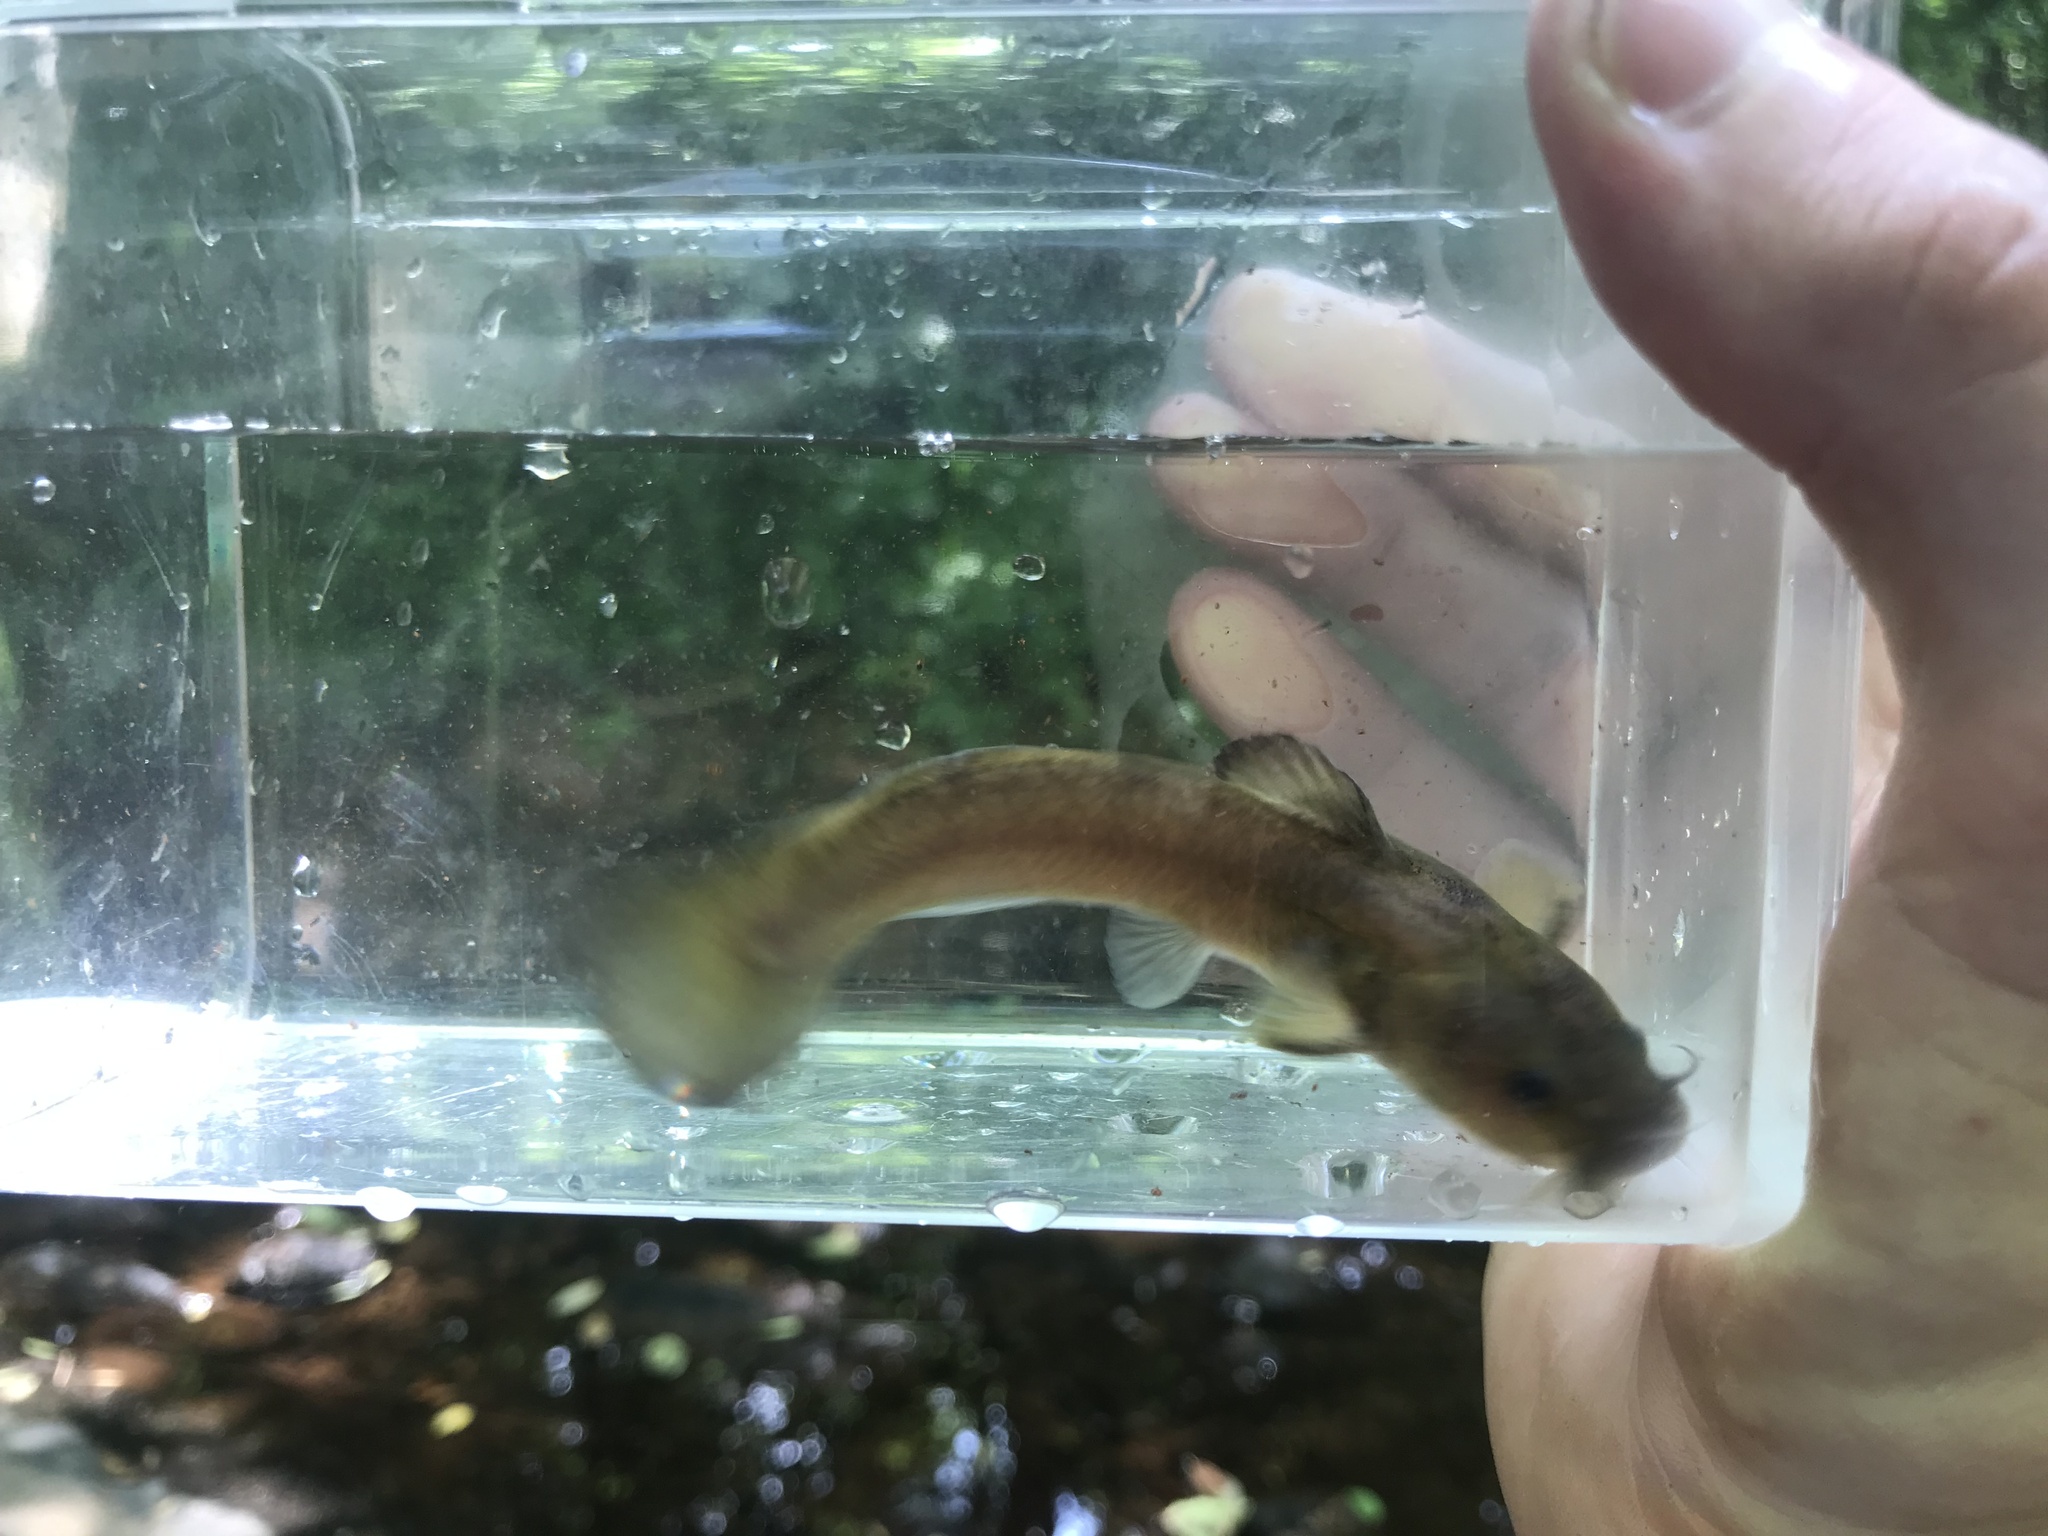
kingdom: Animalia
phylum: Chordata
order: Siluriformes
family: Ictaluridae
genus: Noturus
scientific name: Noturus insignis
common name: Margined madtom
